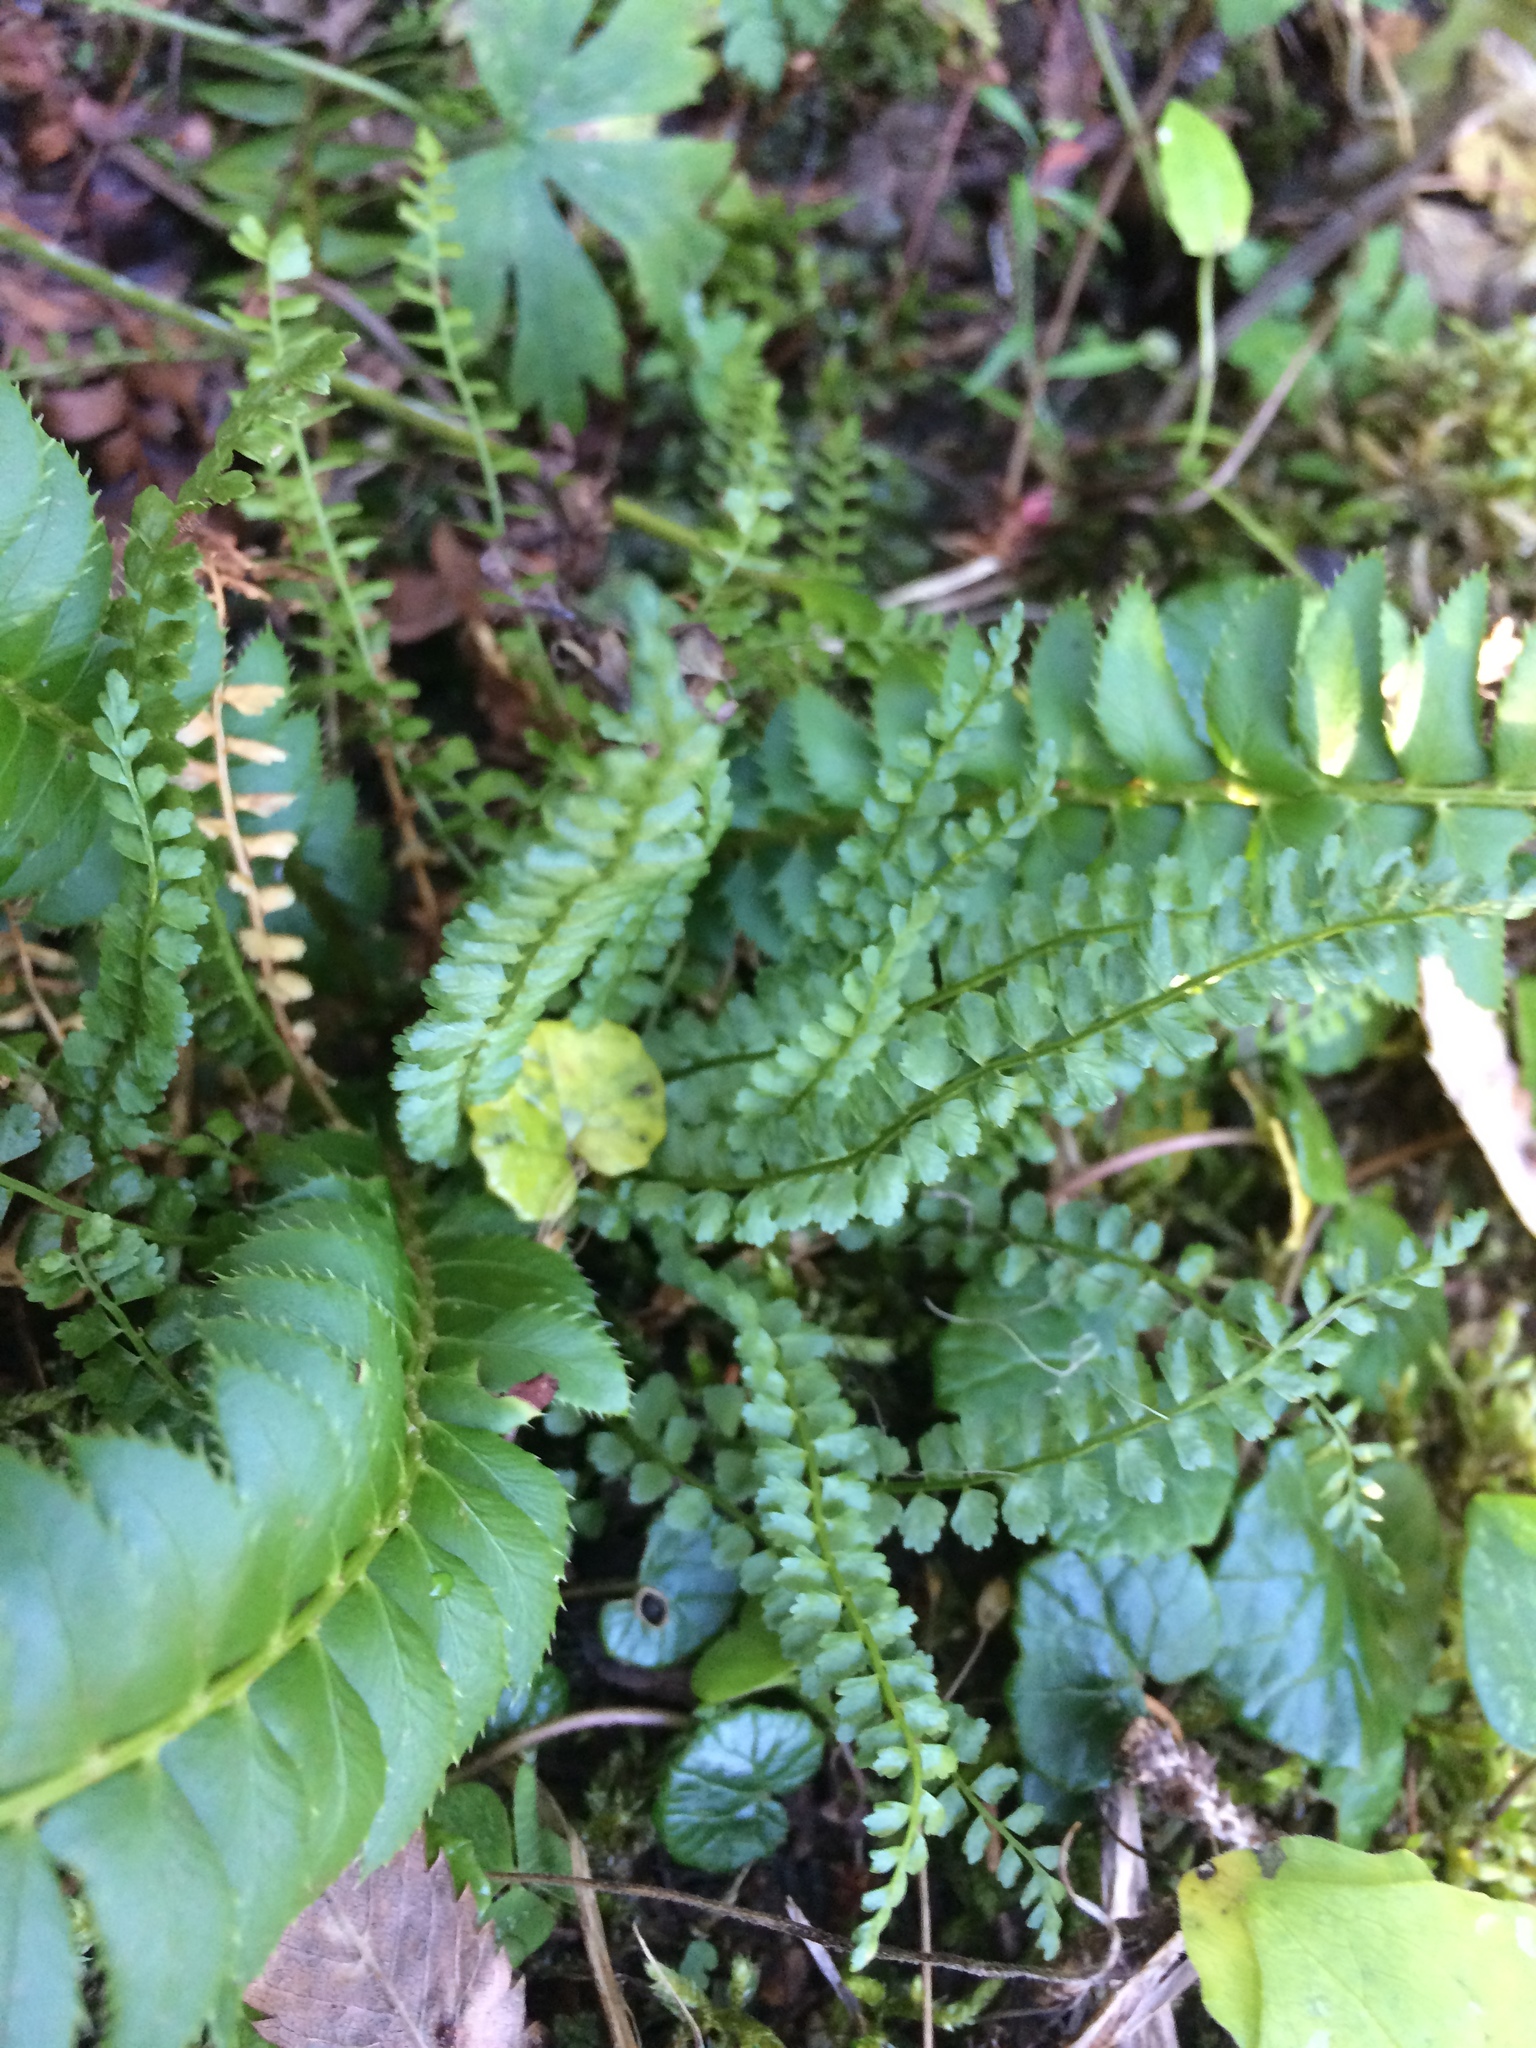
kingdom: Plantae
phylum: Tracheophyta
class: Polypodiopsida
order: Polypodiales
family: Aspleniaceae
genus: Asplenium
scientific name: Asplenium viride
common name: Green spleenwort
